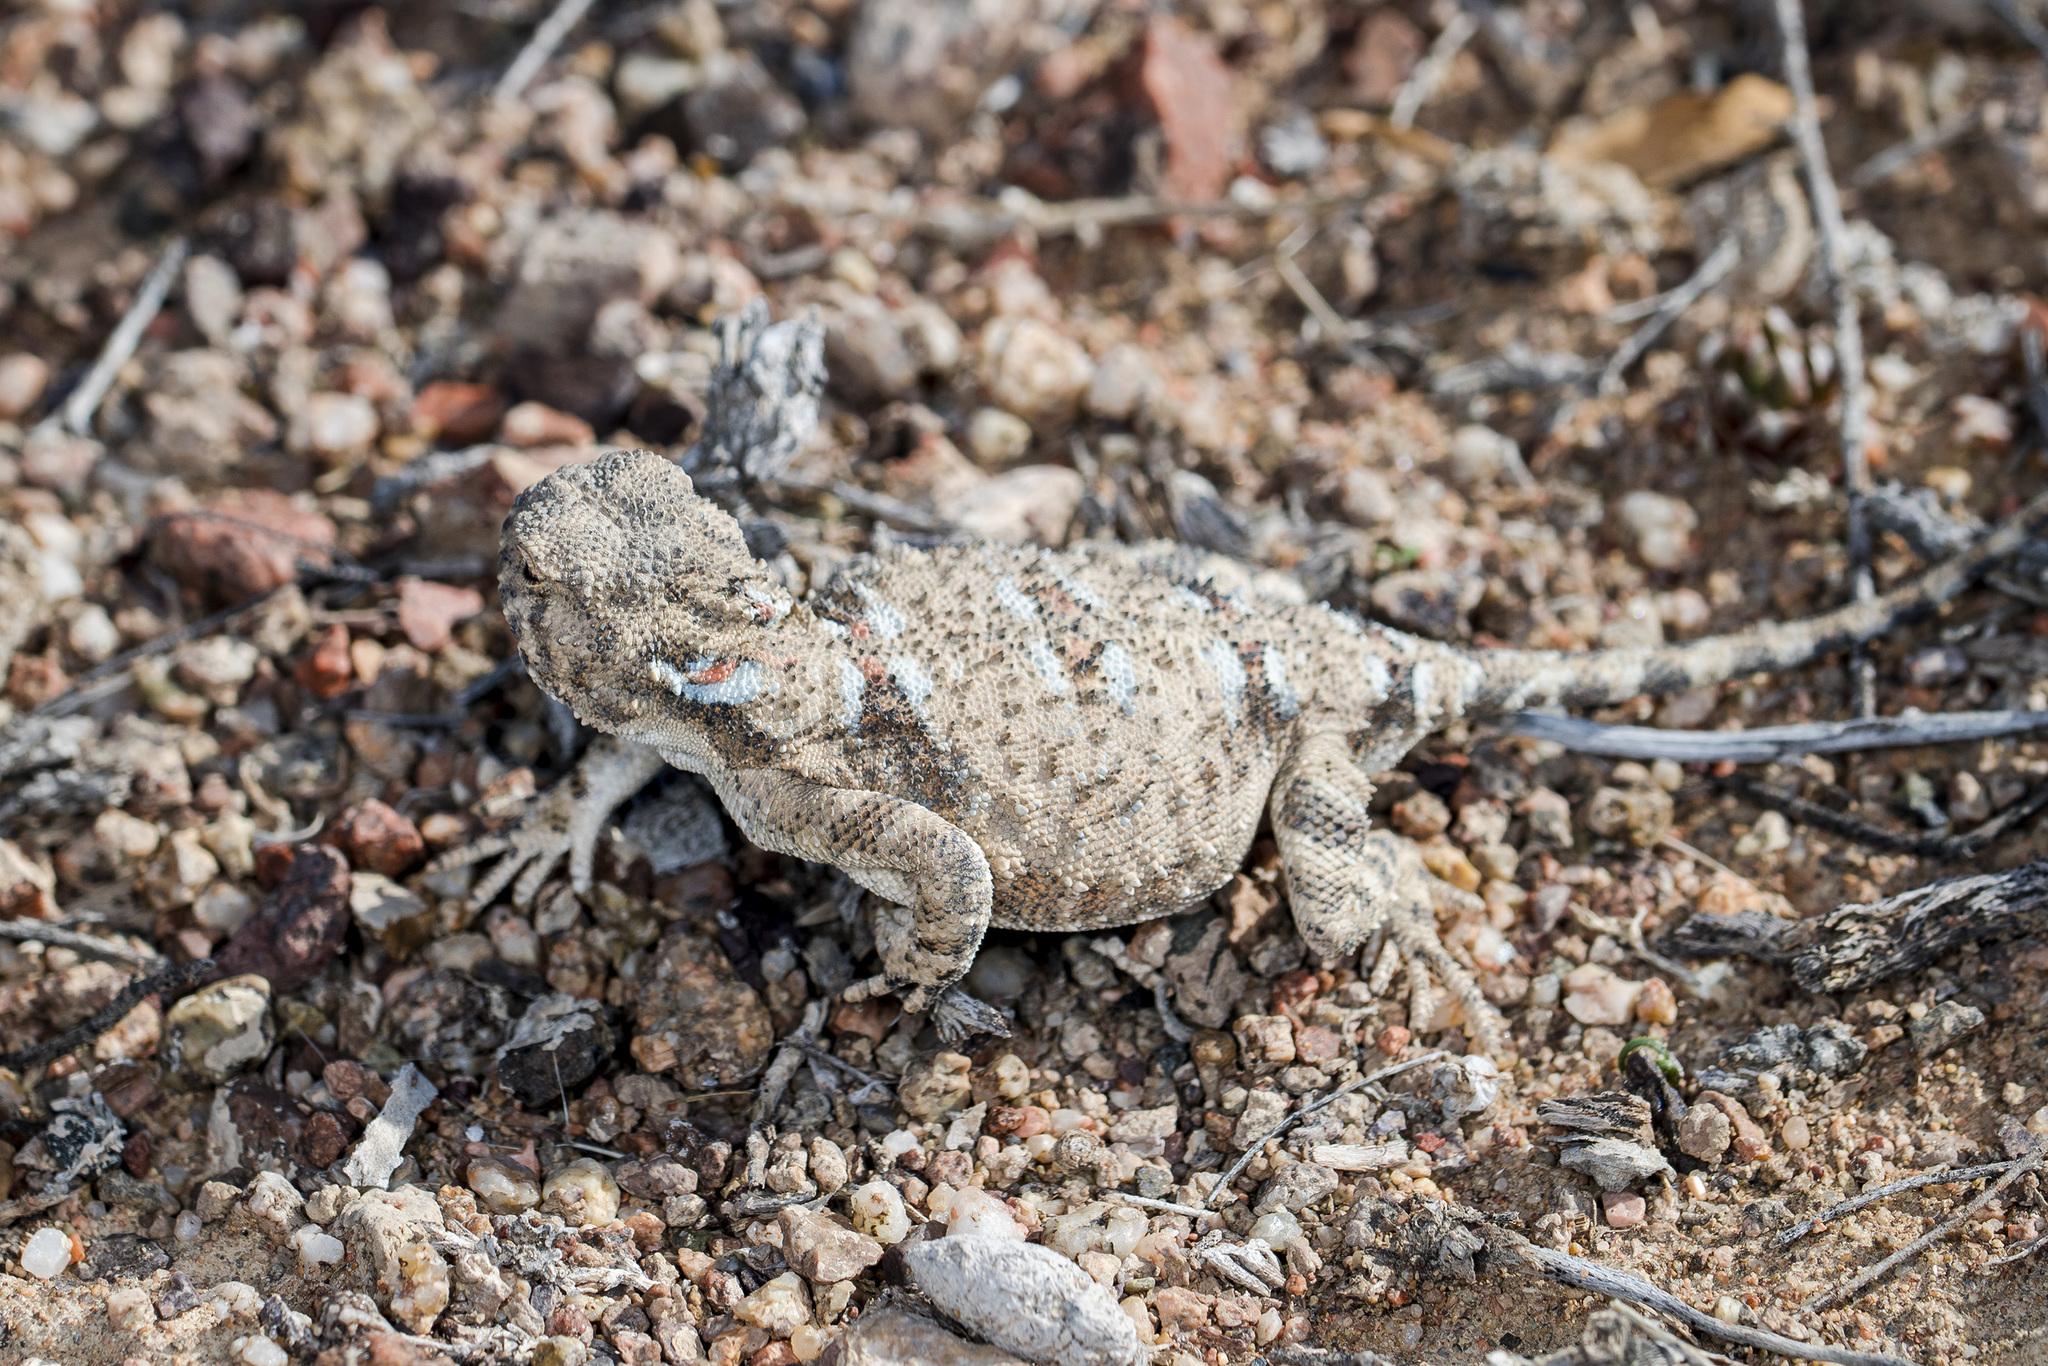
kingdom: Animalia
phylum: Chordata
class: Squamata
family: Agamidae
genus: Phrynocephalus
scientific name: Phrynocephalus helioscopus
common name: Sunwatcher
